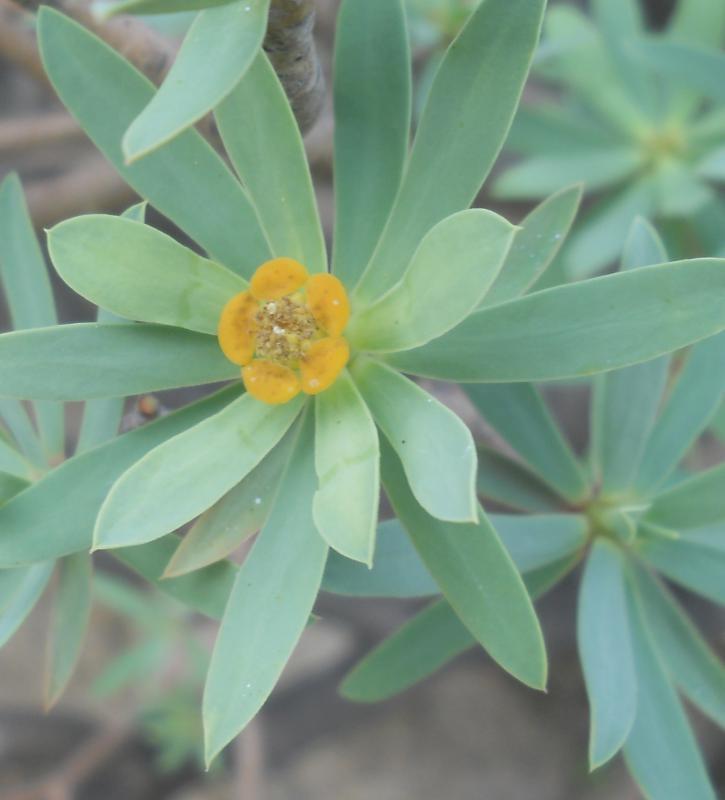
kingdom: Plantae
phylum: Tracheophyta
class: Magnoliopsida
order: Malpighiales
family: Euphorbiaceae
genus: Euphorbia
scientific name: Euphorbia balsamifera
